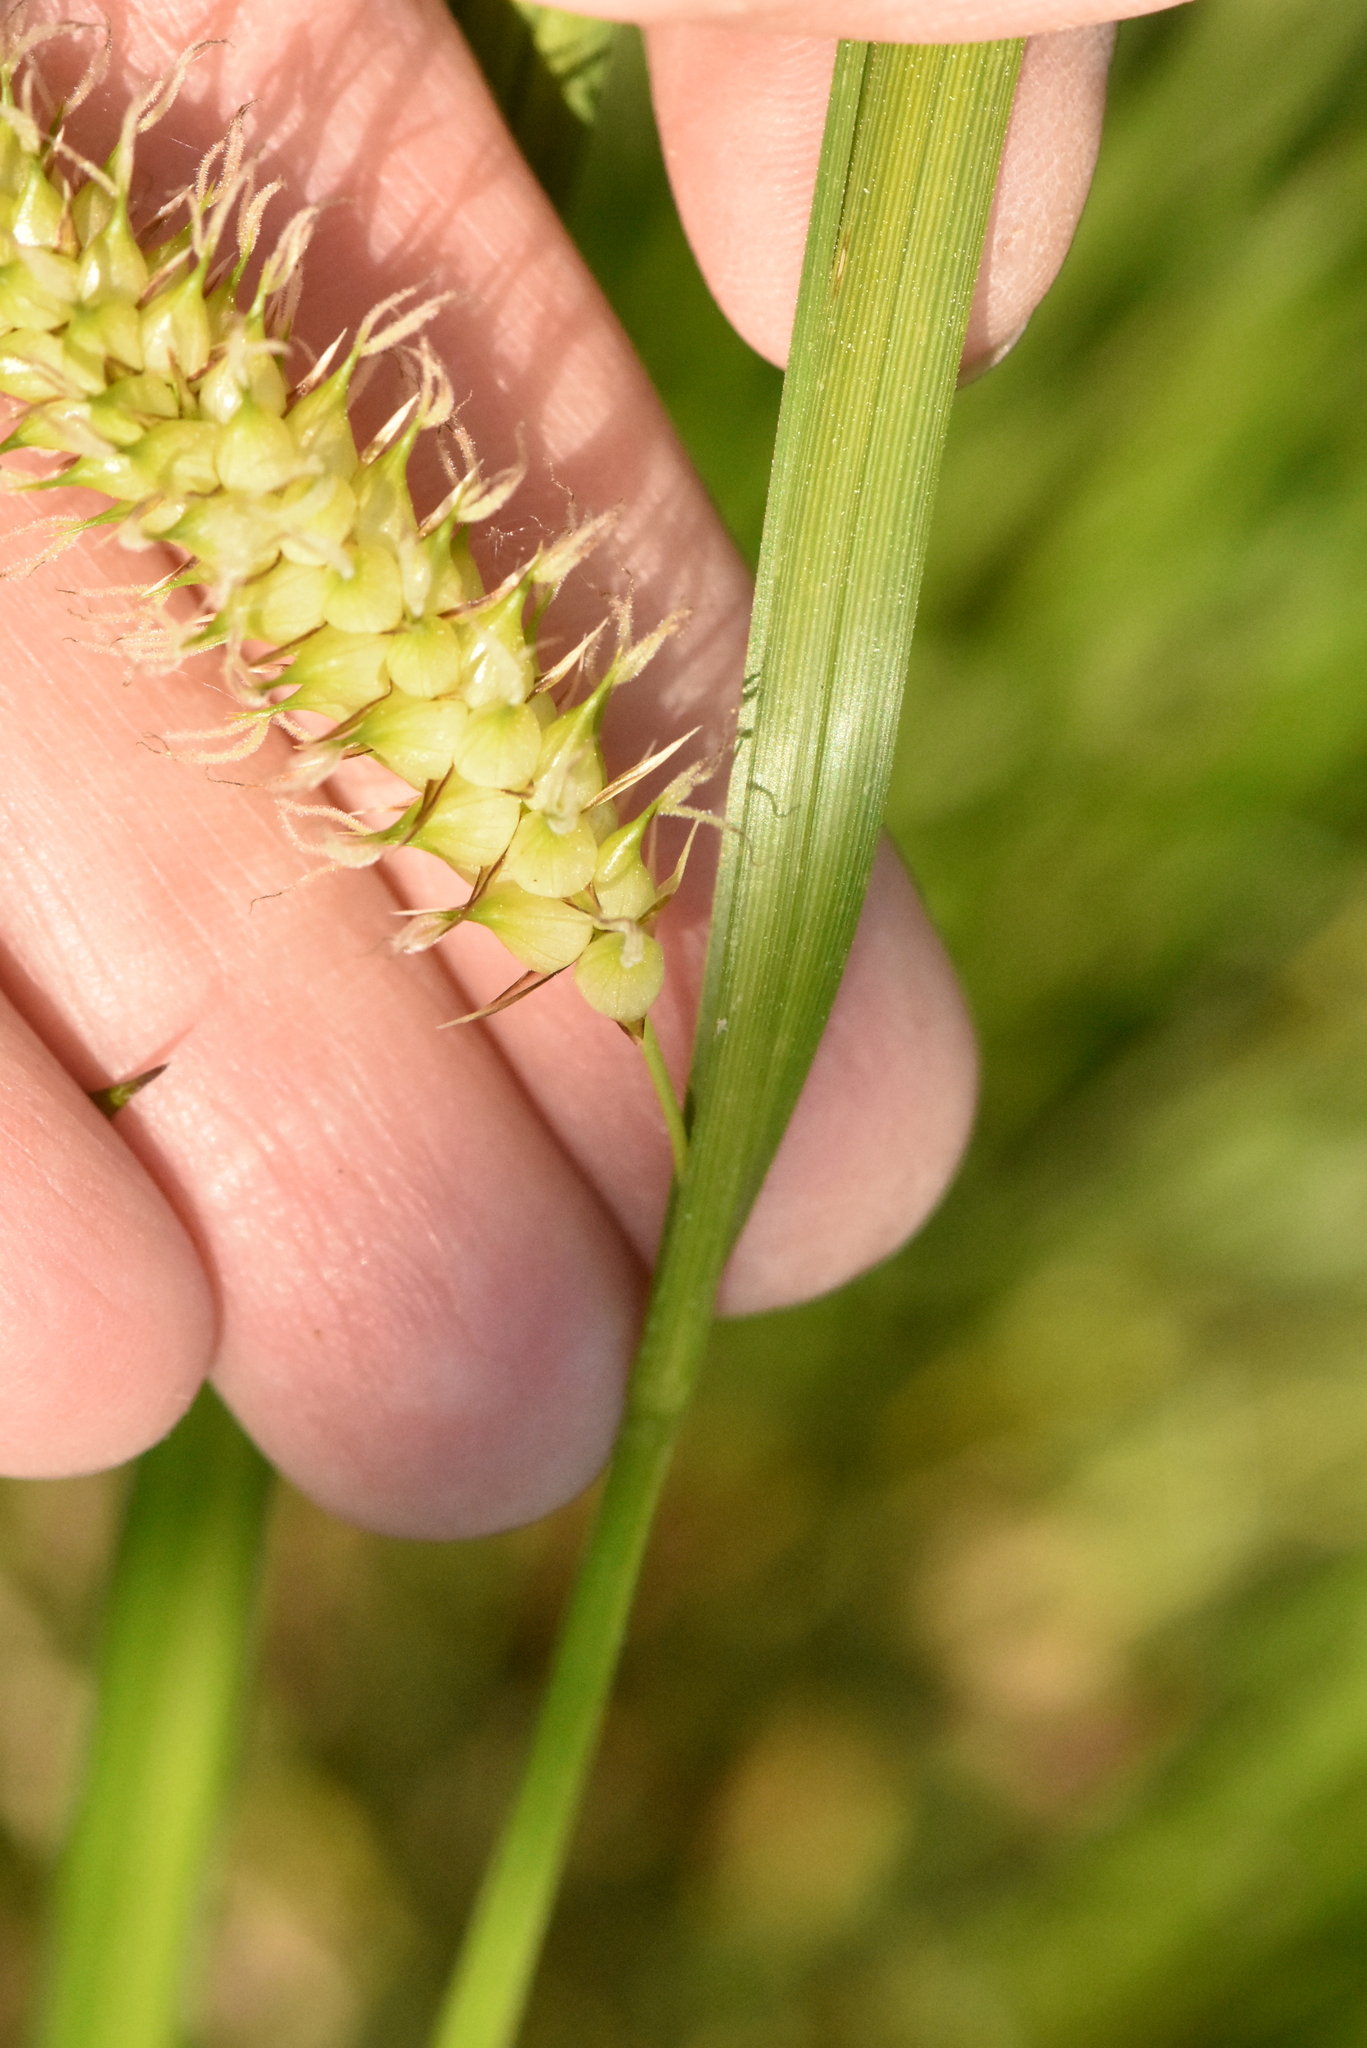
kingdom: Plantae
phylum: Tracheophyta
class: Liliopsida
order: Poales
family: Cyperaceae
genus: Carex
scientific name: Carex vesicaria
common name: Bladder-sedge
